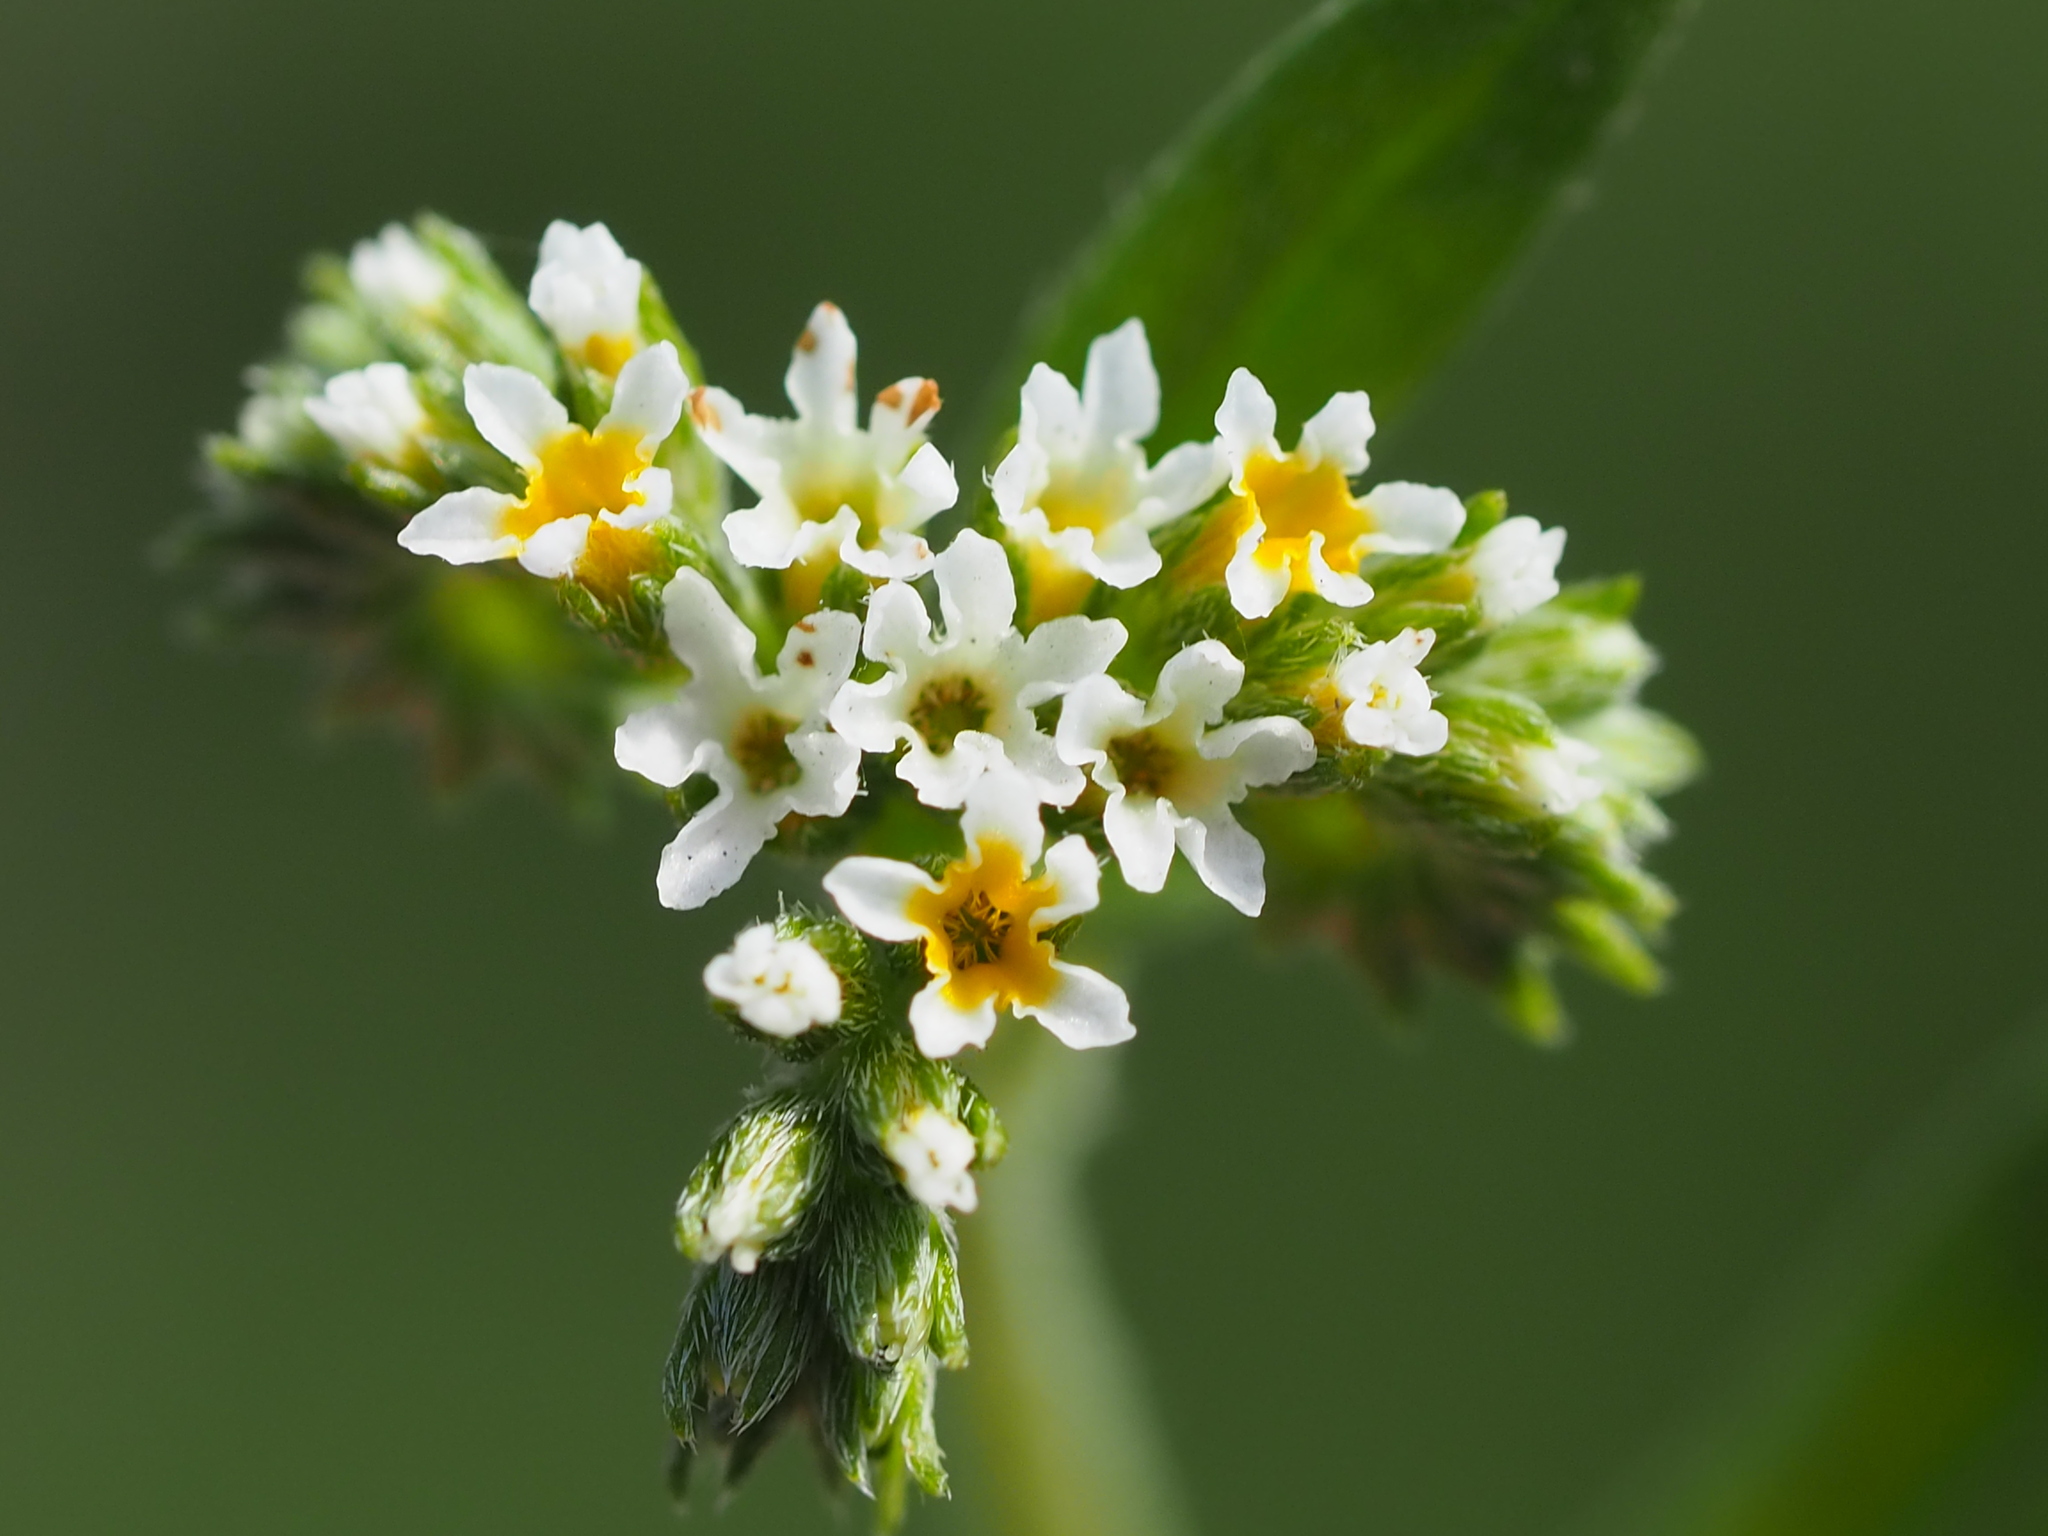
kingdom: Plantae
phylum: Tracheophyta
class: Magnoliopsida
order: Boraginales
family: Heliotropiaceae
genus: Euploca
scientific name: Euploca procumbens
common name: Fourspike heliotrope
